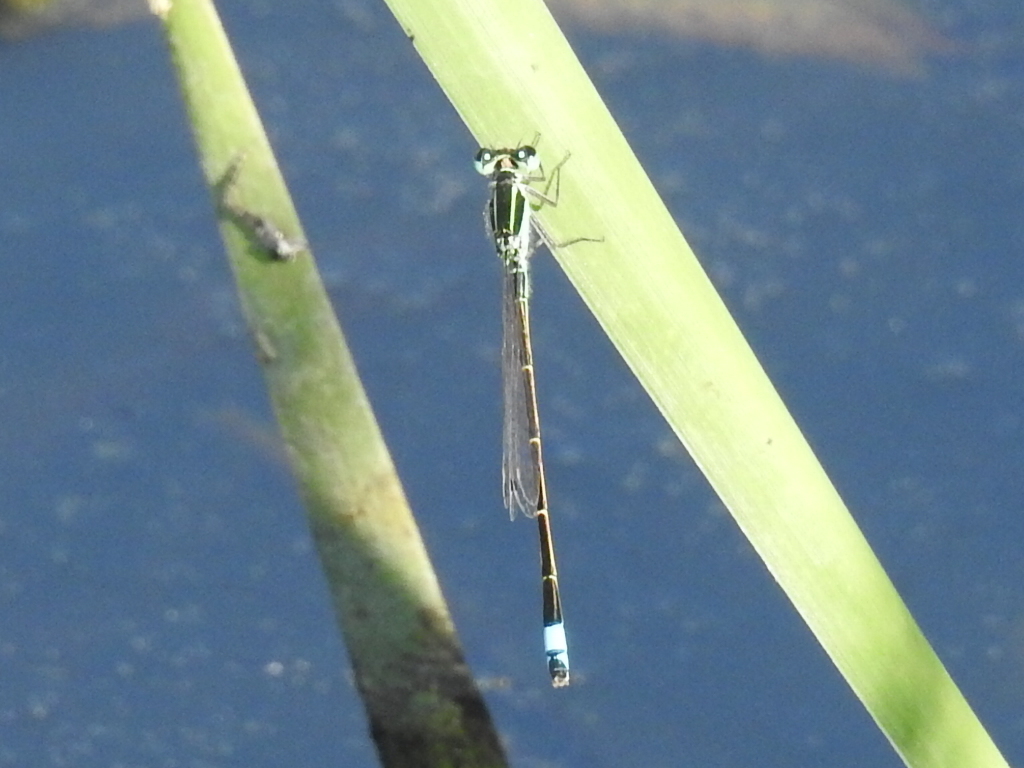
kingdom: Animalia
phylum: Arthropoda
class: Insecta
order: Odonata
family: Coenagrionidae
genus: Ischnura
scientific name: Ischnura ramburii
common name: Rambur's forktail
